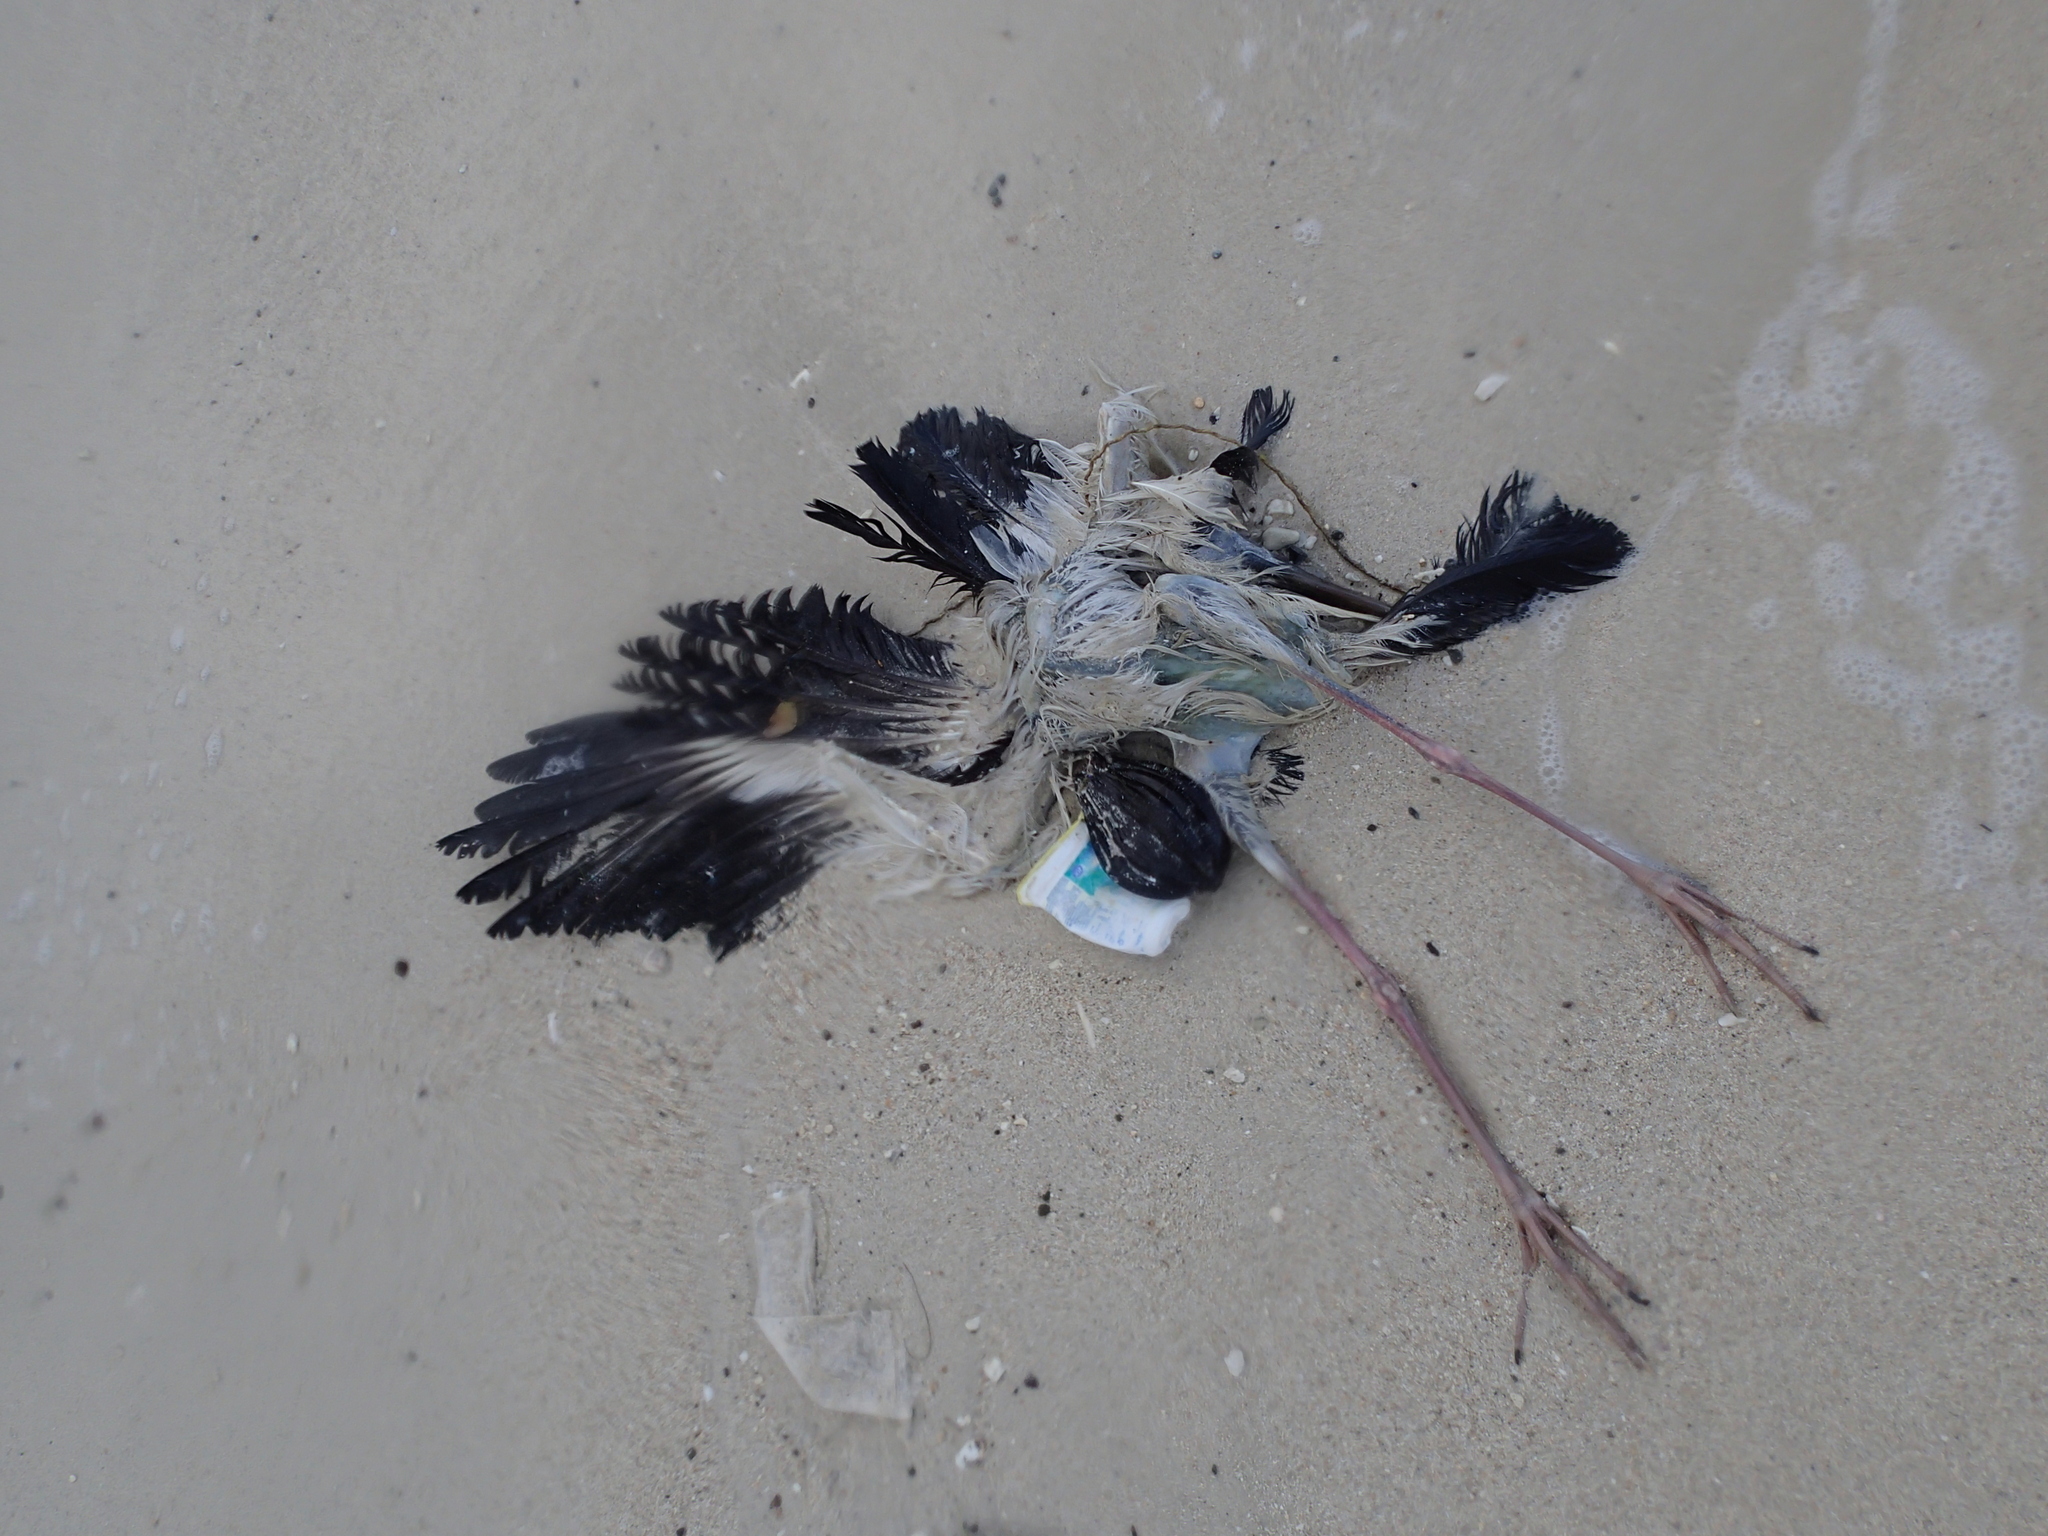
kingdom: Animalia
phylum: Chordata
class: Aves
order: Ciconiiformes
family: Ciconiidae
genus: Anastomus
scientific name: Anastomus oscitans
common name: Asian openbill
